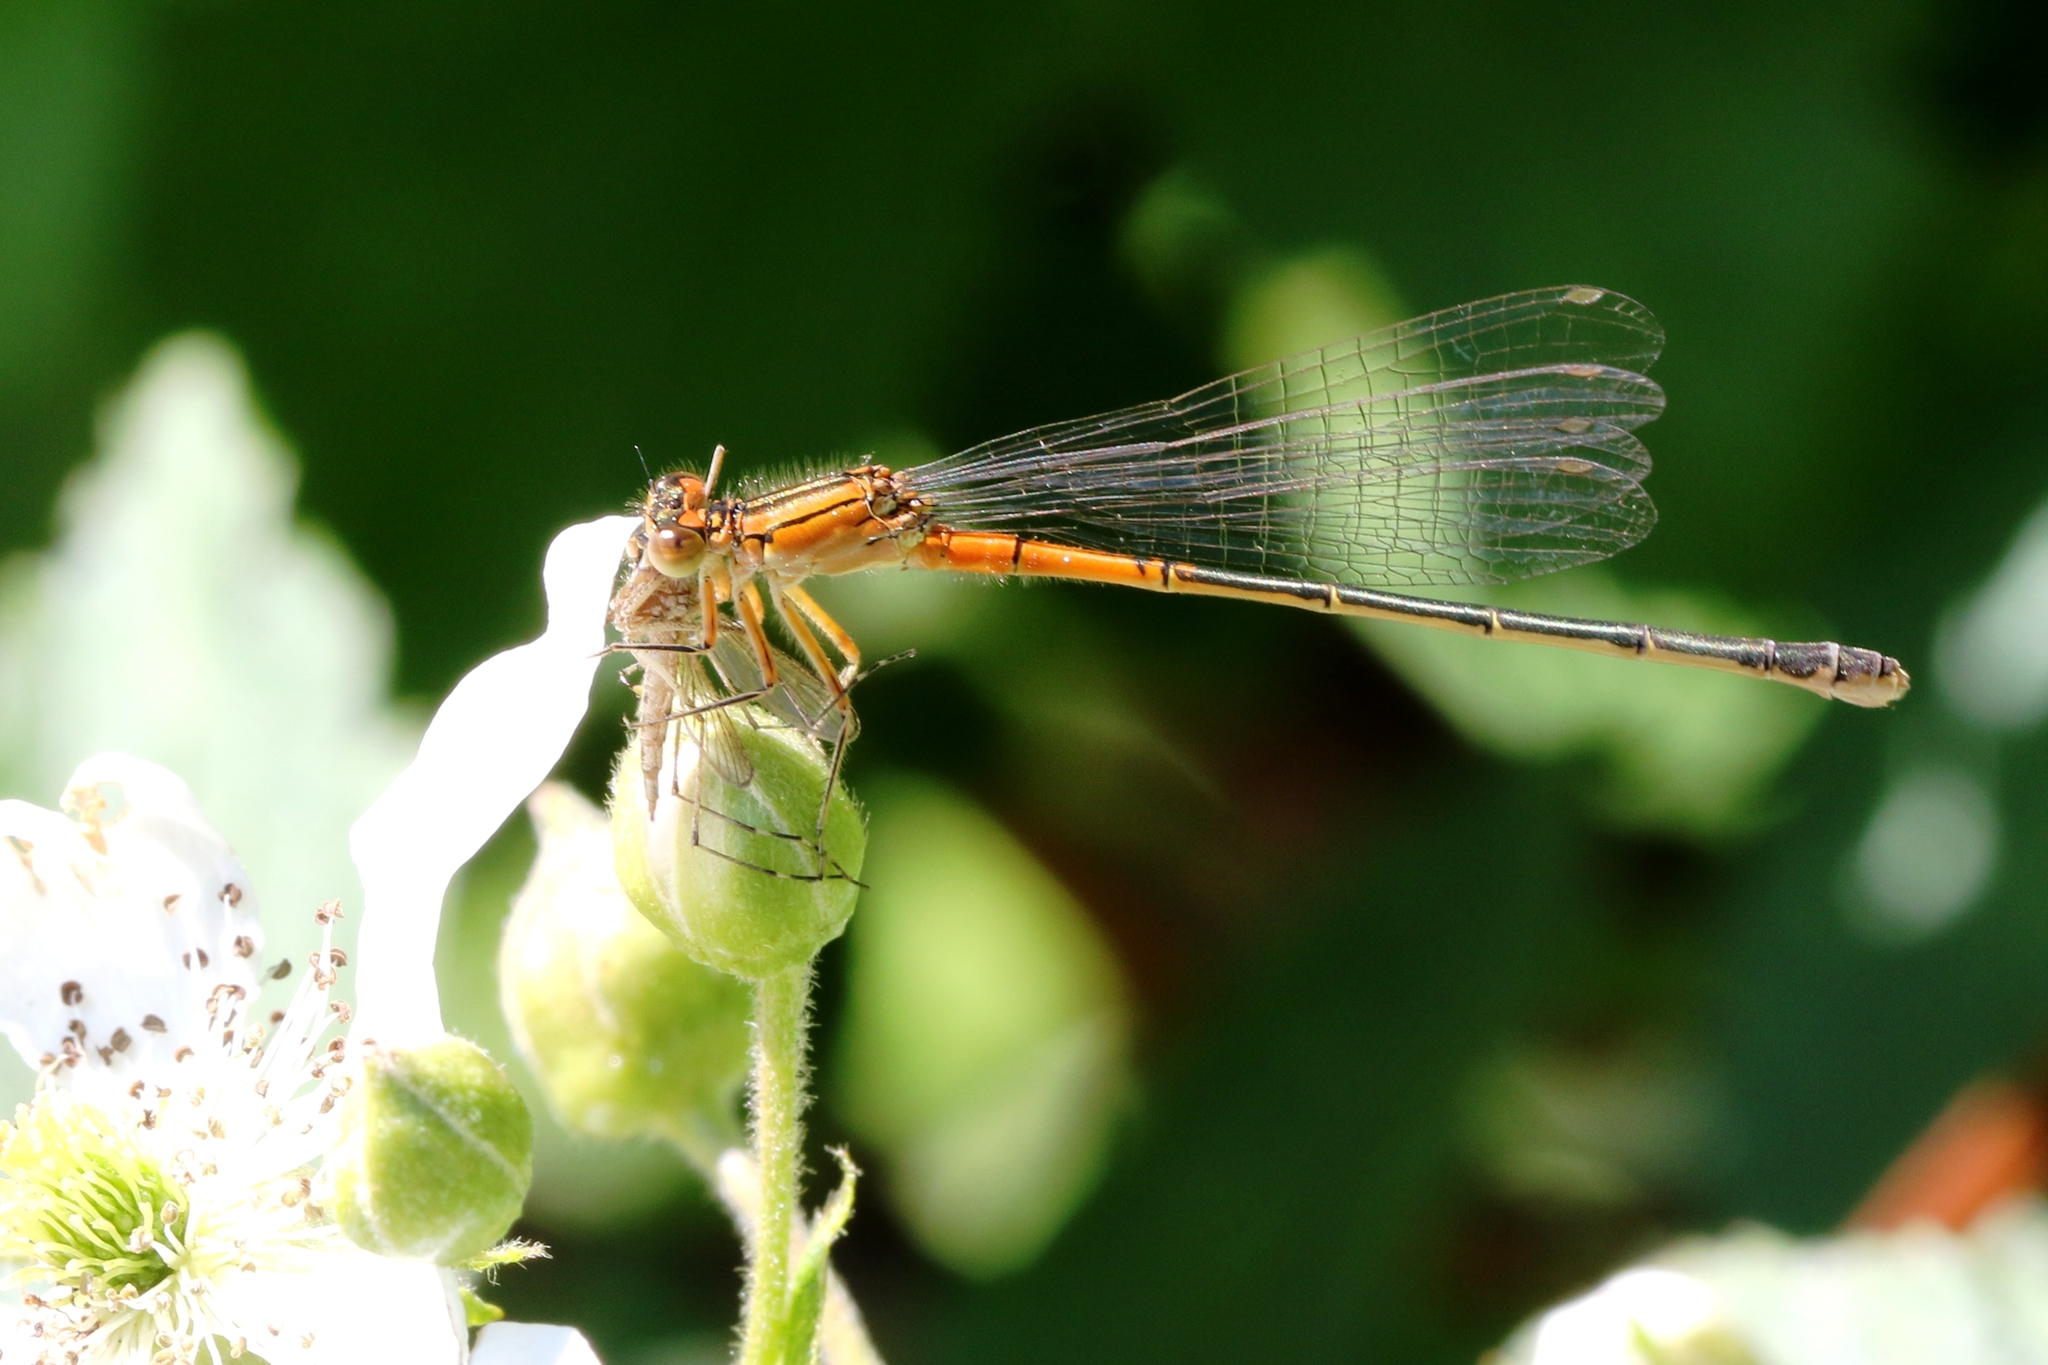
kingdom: Animalia
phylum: Arthropoda
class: Insecta
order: Odonata
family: Coenagrionidae
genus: Ischnura
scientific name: Ischnura verticalis
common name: Eastern forktail
